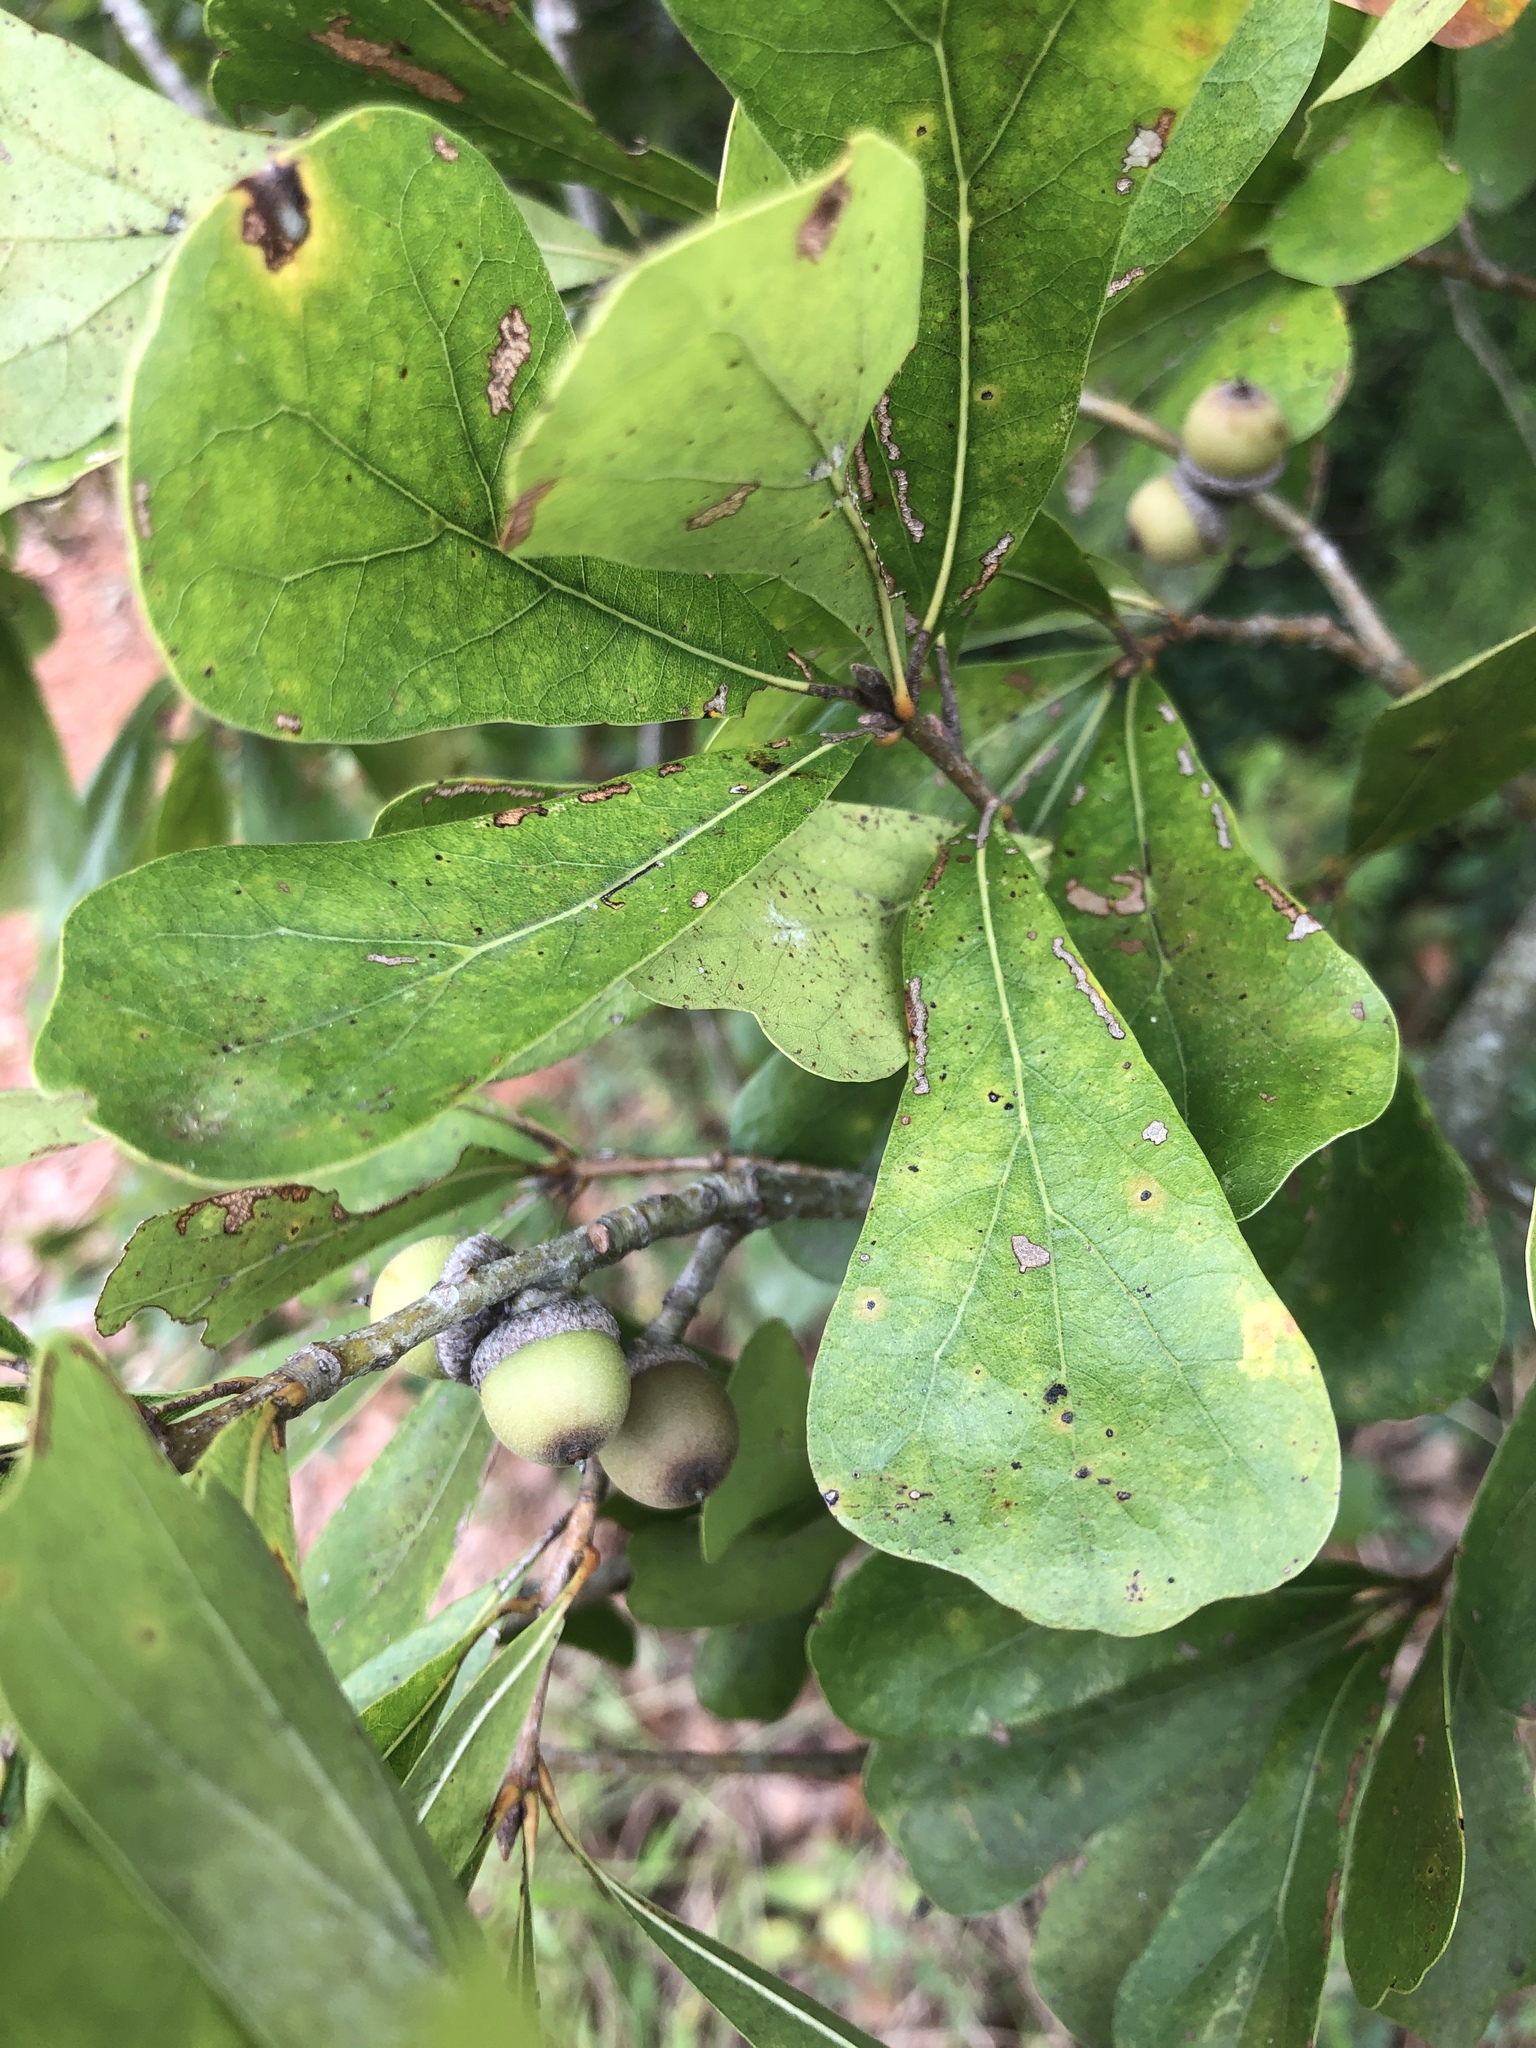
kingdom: Plantae
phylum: Tracheophyta
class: Magnoliopsida
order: Fagales
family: Fagaceae
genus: Quercus
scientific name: Quercus nigra
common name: Water oak
